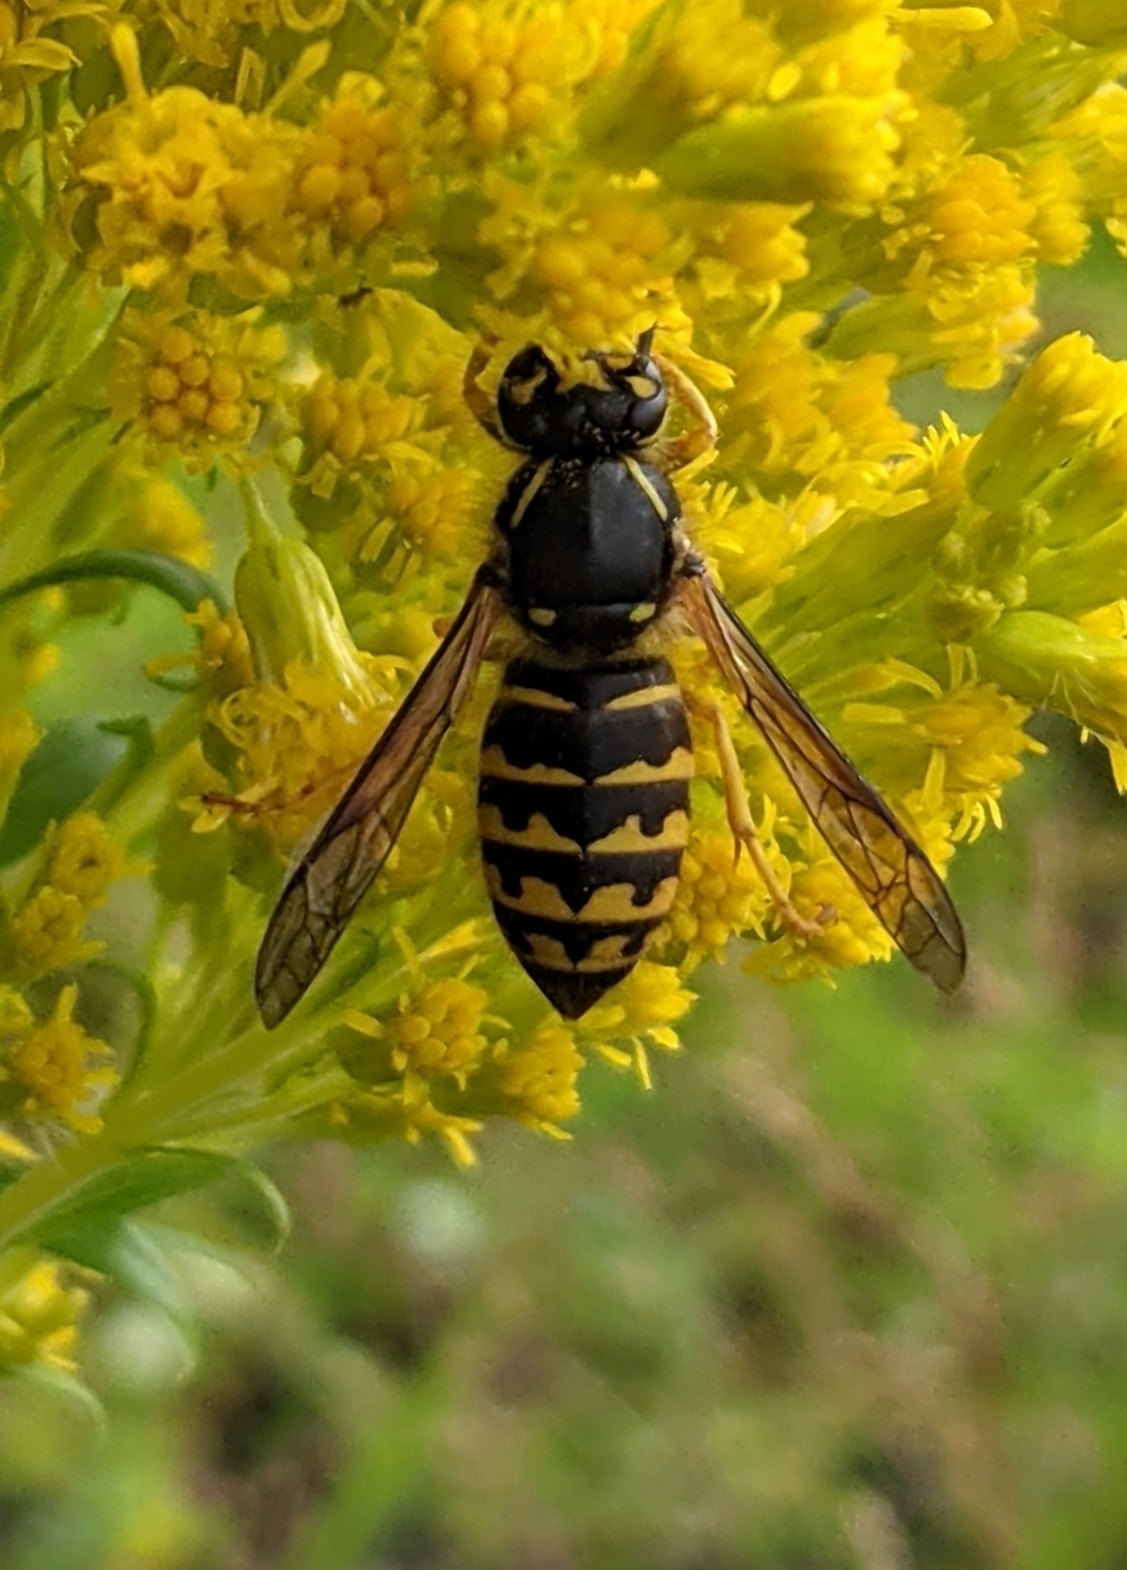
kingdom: Animalia
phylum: Arthropoda
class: Insecta
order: Hymenoptera
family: Vespidae
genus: Dolichovespula
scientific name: Dolichovespula arenaria
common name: Aerial yellowjacket
